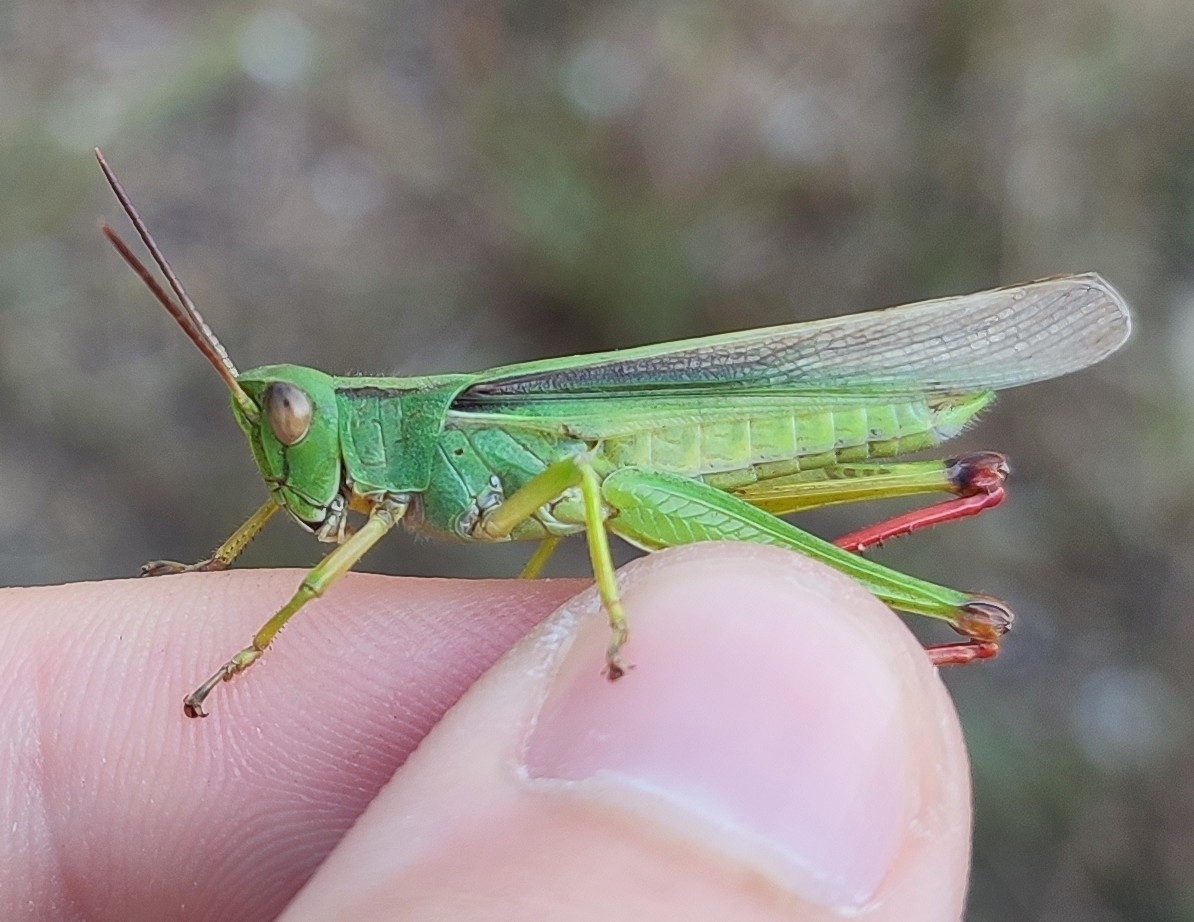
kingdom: Animalia
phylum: Arthropoda
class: Insecta
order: Orthoptera
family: Acrididae
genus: Paracinema
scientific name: Paracinema tricolor
